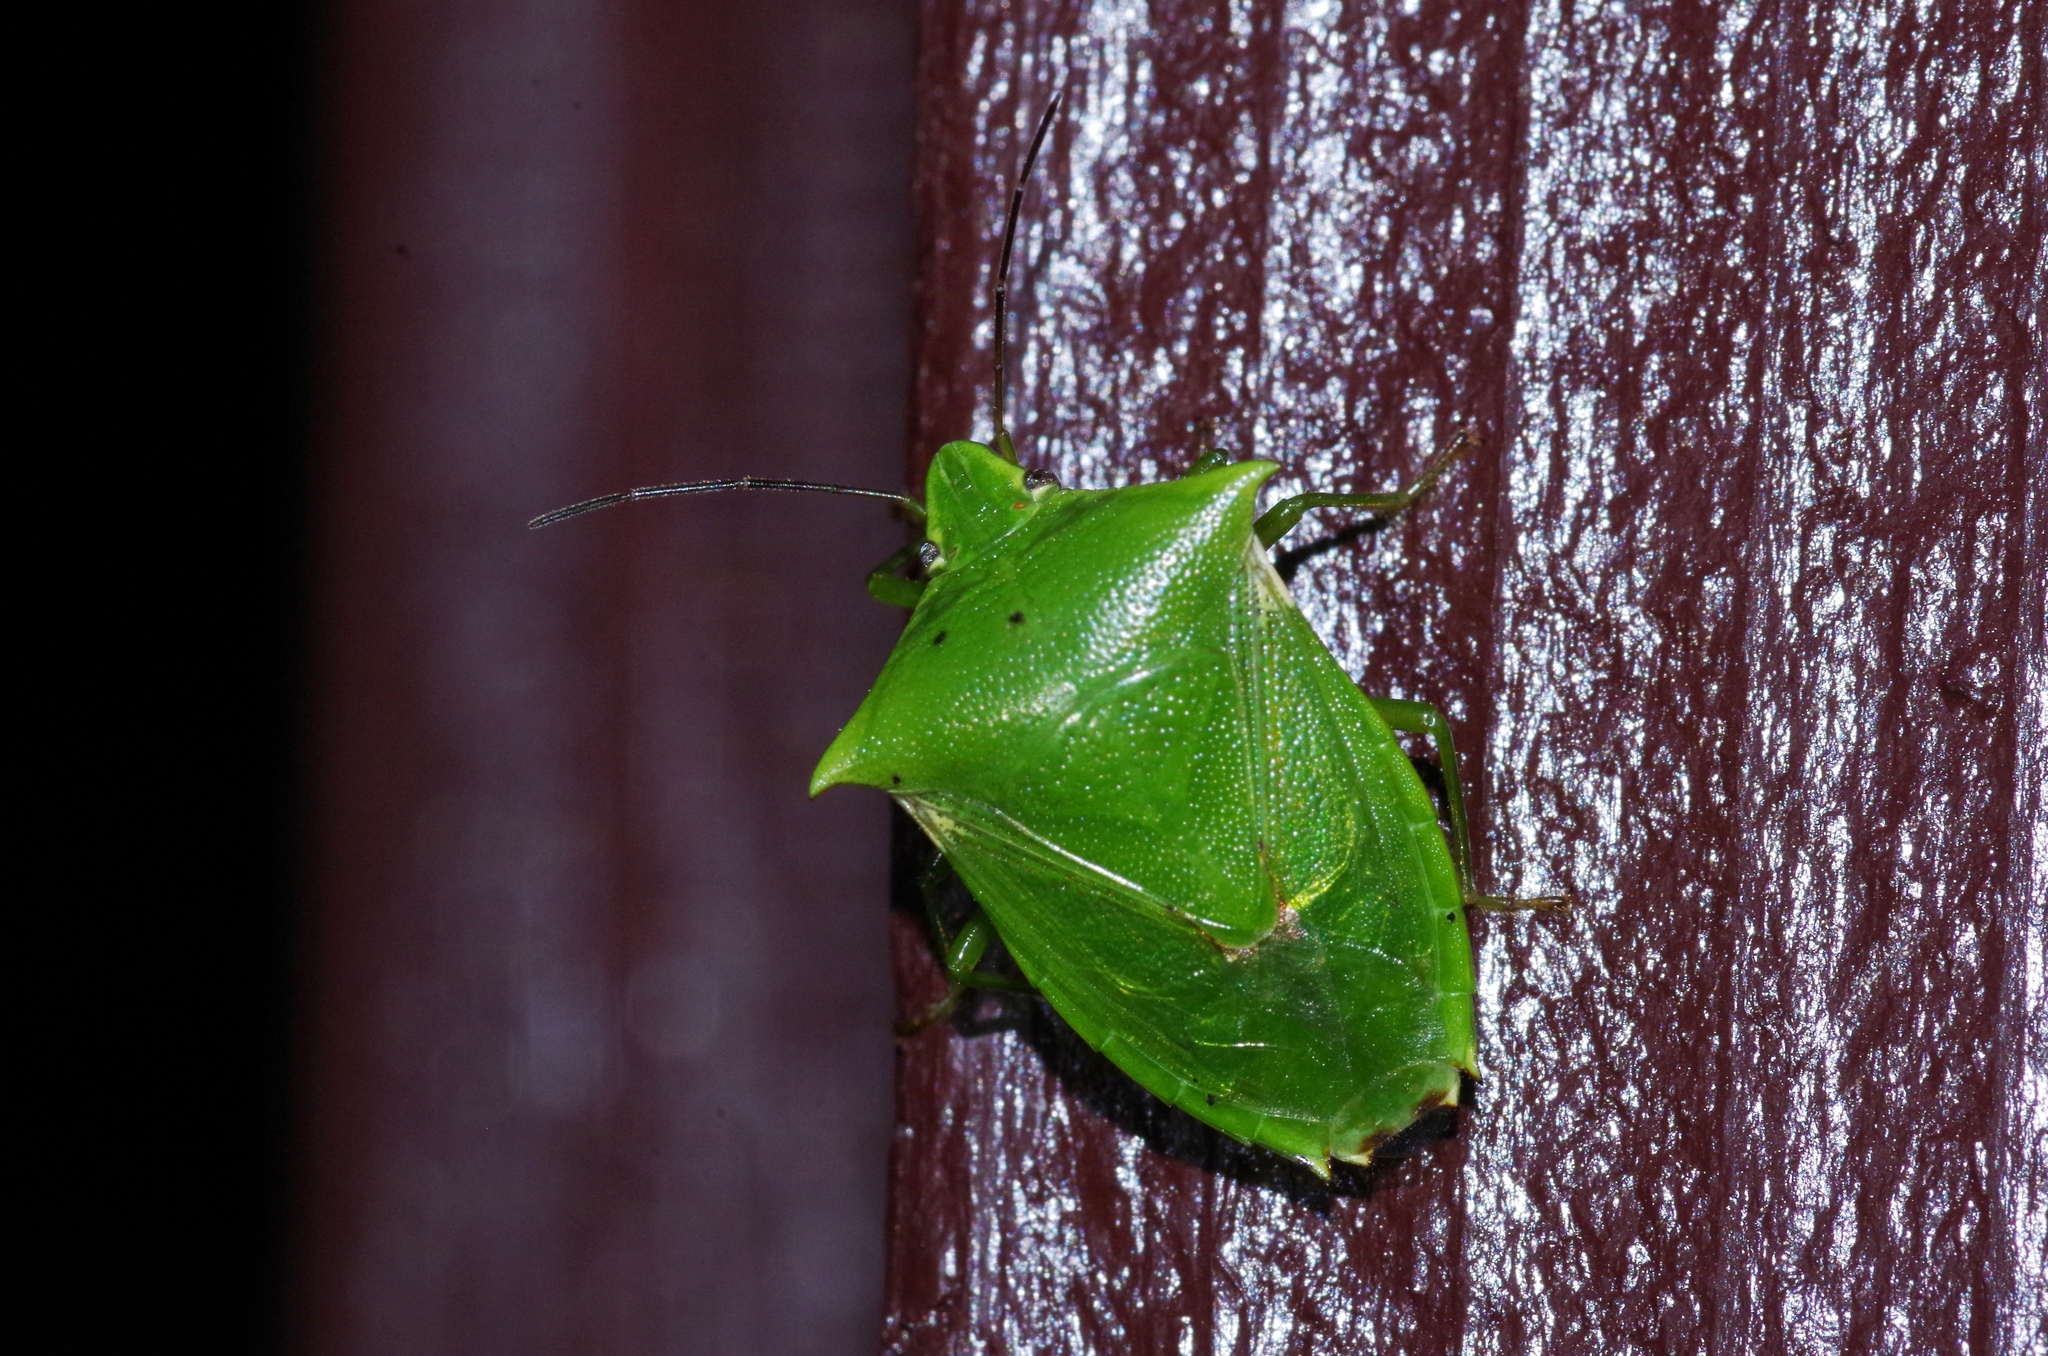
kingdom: Animalia
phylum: Arthropoda
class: Insecta
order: Hemiptera
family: Pentatomidae
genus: Vitellus
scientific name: Vitellus
